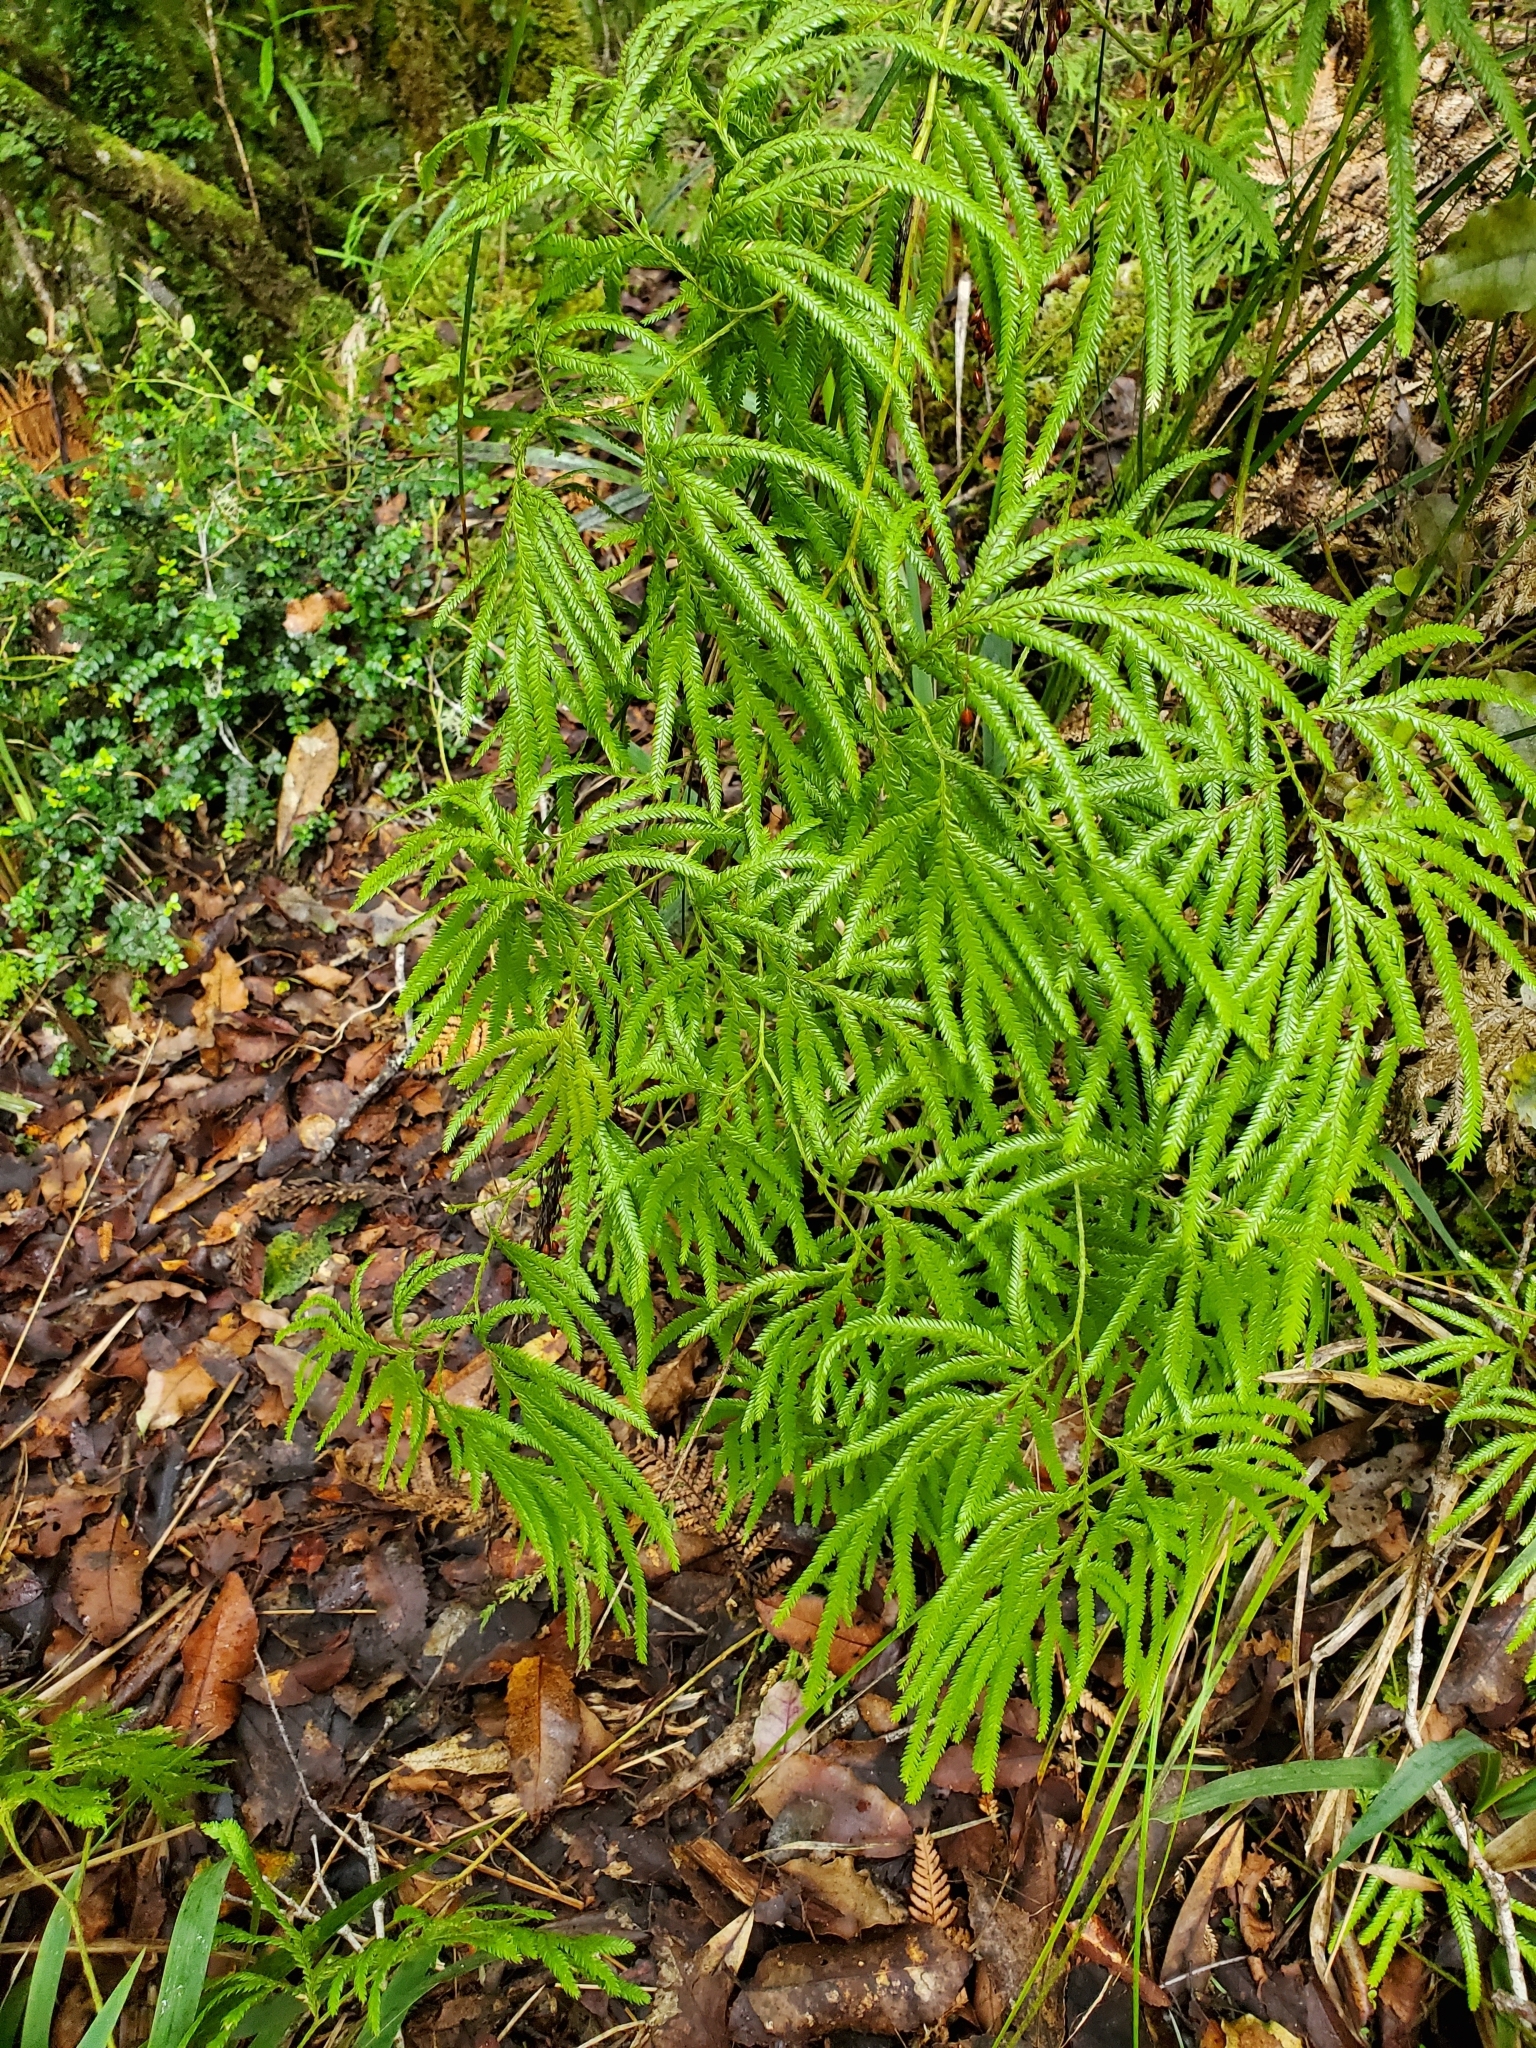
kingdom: Plantae
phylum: Tracheophyta
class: Lycopodiopsida
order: Lycopodiales
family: Lycopodiaceae
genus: Lycopodium
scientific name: Lycopodium volubile
